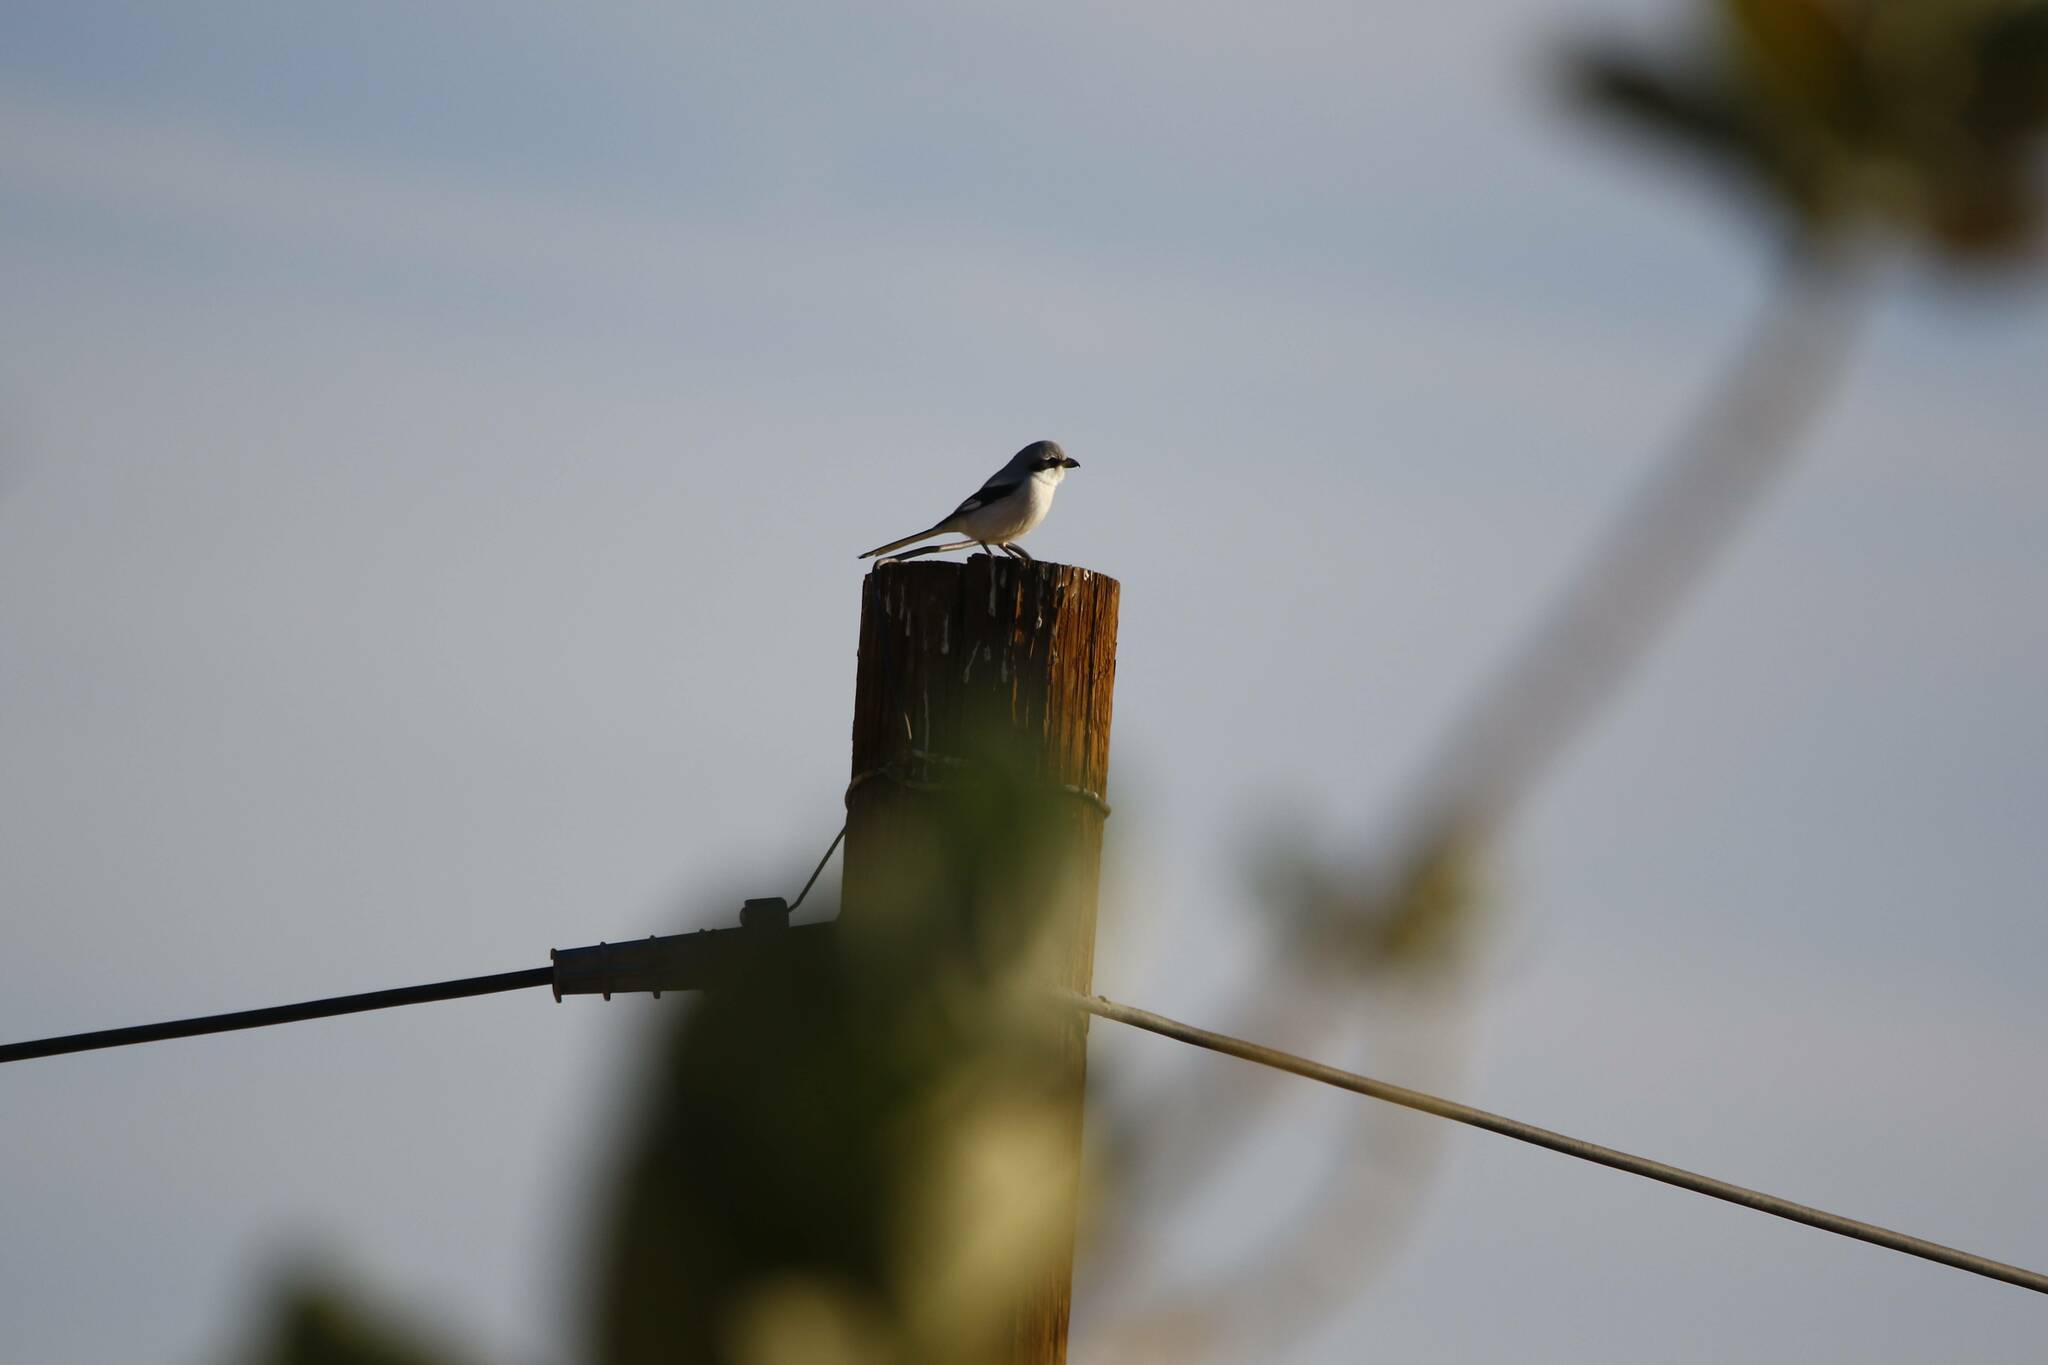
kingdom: Animalia
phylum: Chordata
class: Aves
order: Passeriformes
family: Laniidae
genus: Lanius
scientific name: Lanius excubitor
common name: Great grey shrike
